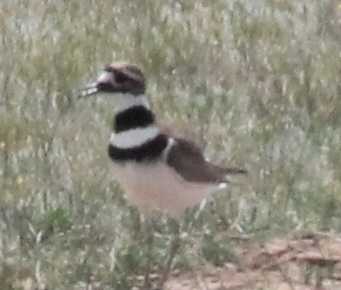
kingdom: Animalia
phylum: Chordata
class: Aves
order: Charadriiformes
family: Charadriidae
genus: Charadrius
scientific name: Charadrius vociferus
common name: Killdeer
